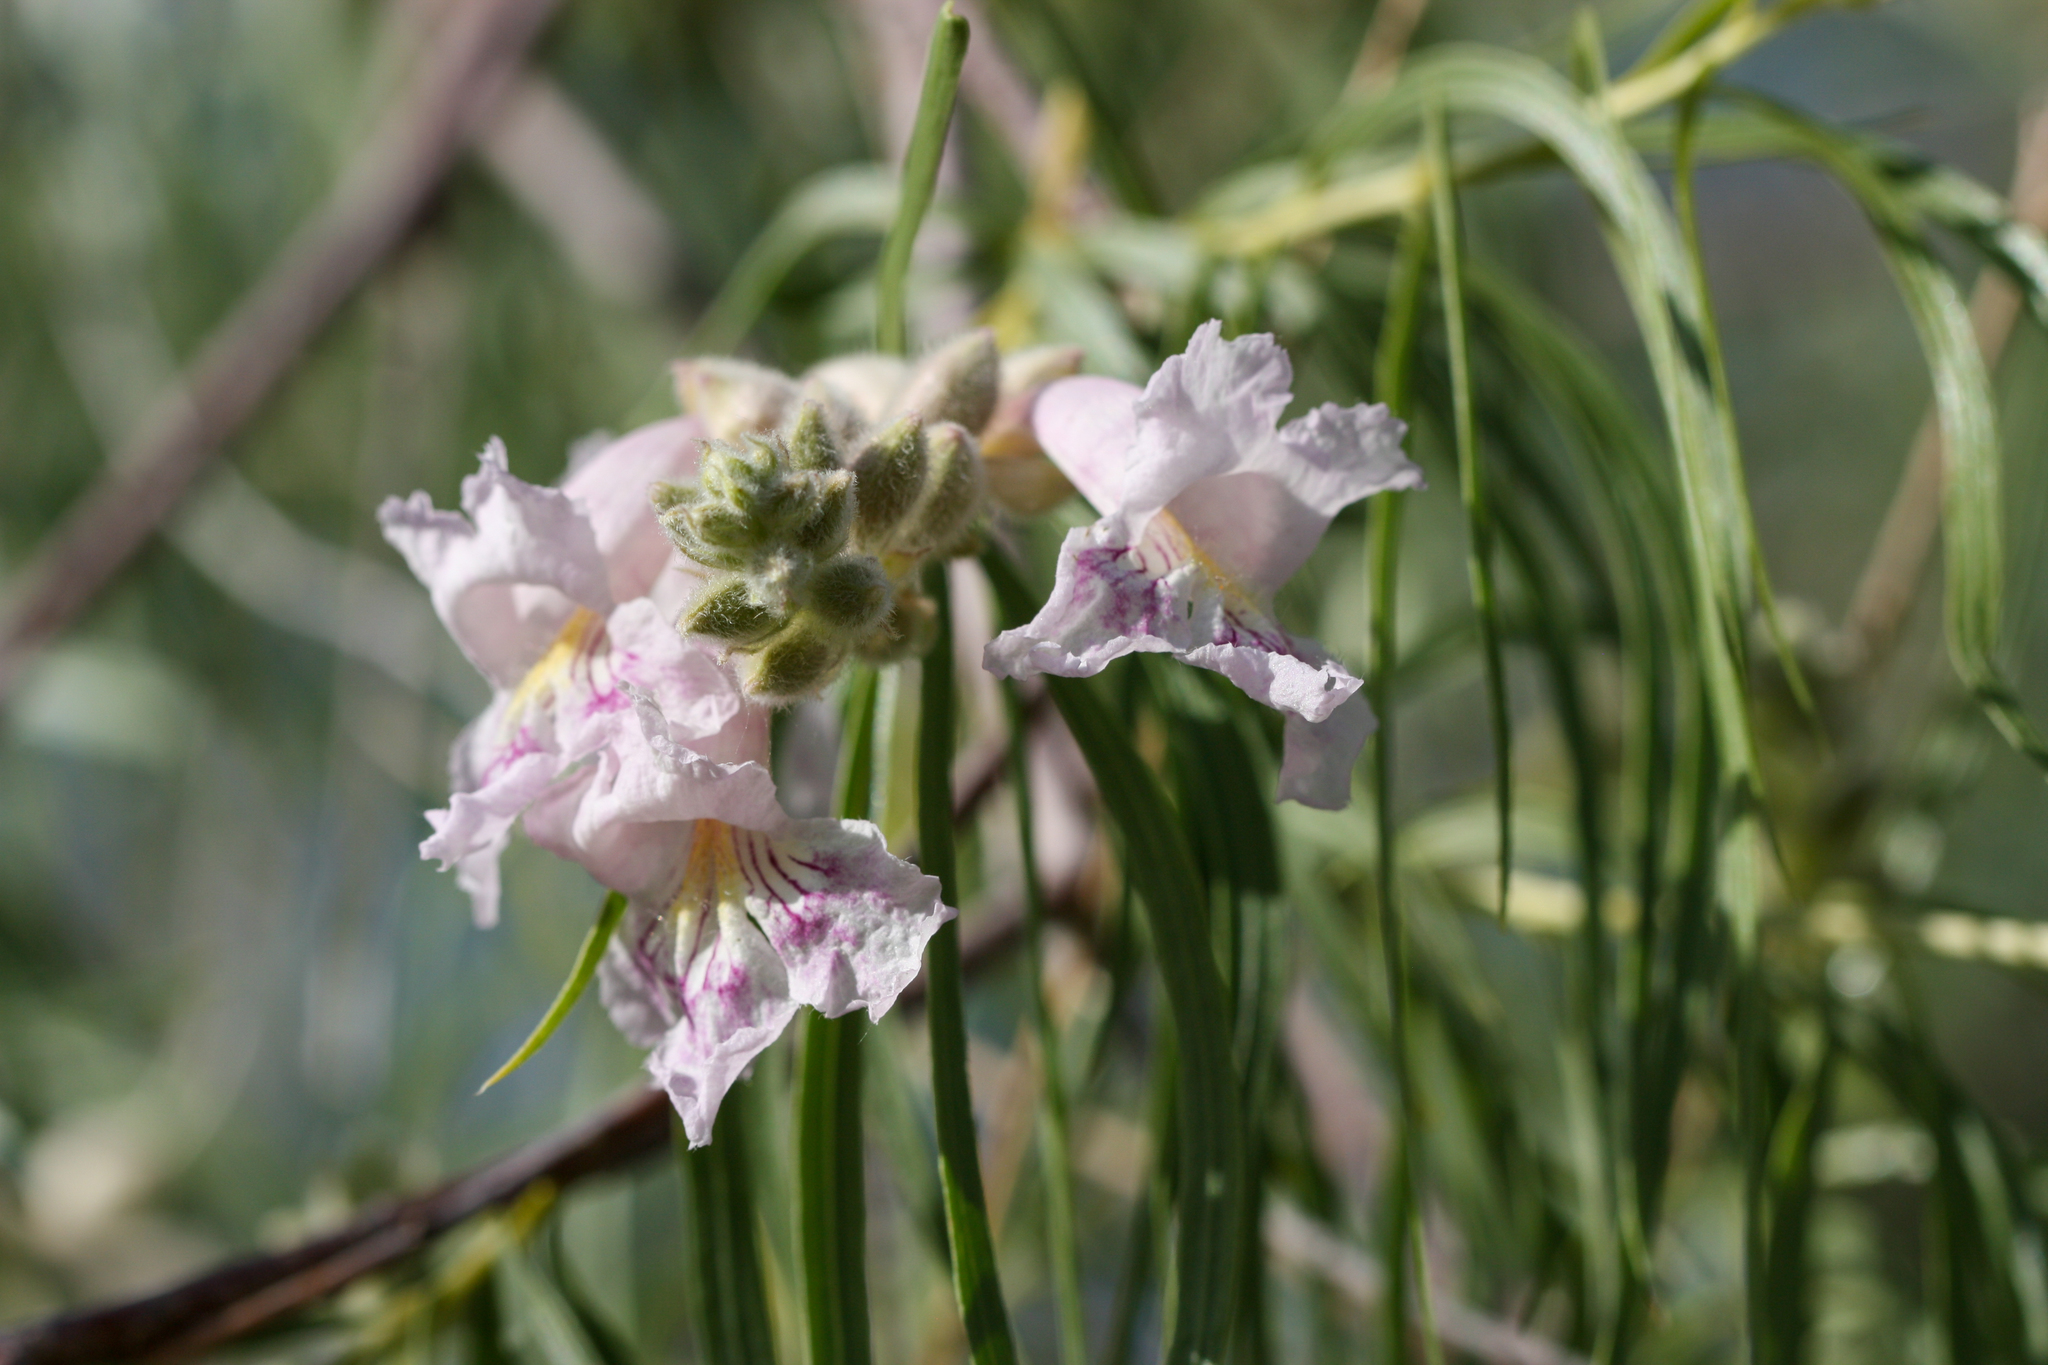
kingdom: Plantae
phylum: Tracheophyta
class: Magnoliopsida
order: Lamiales
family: Bignoniaceae
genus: Chilopsis
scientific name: Chilopsis linearis
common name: Desert-willow
